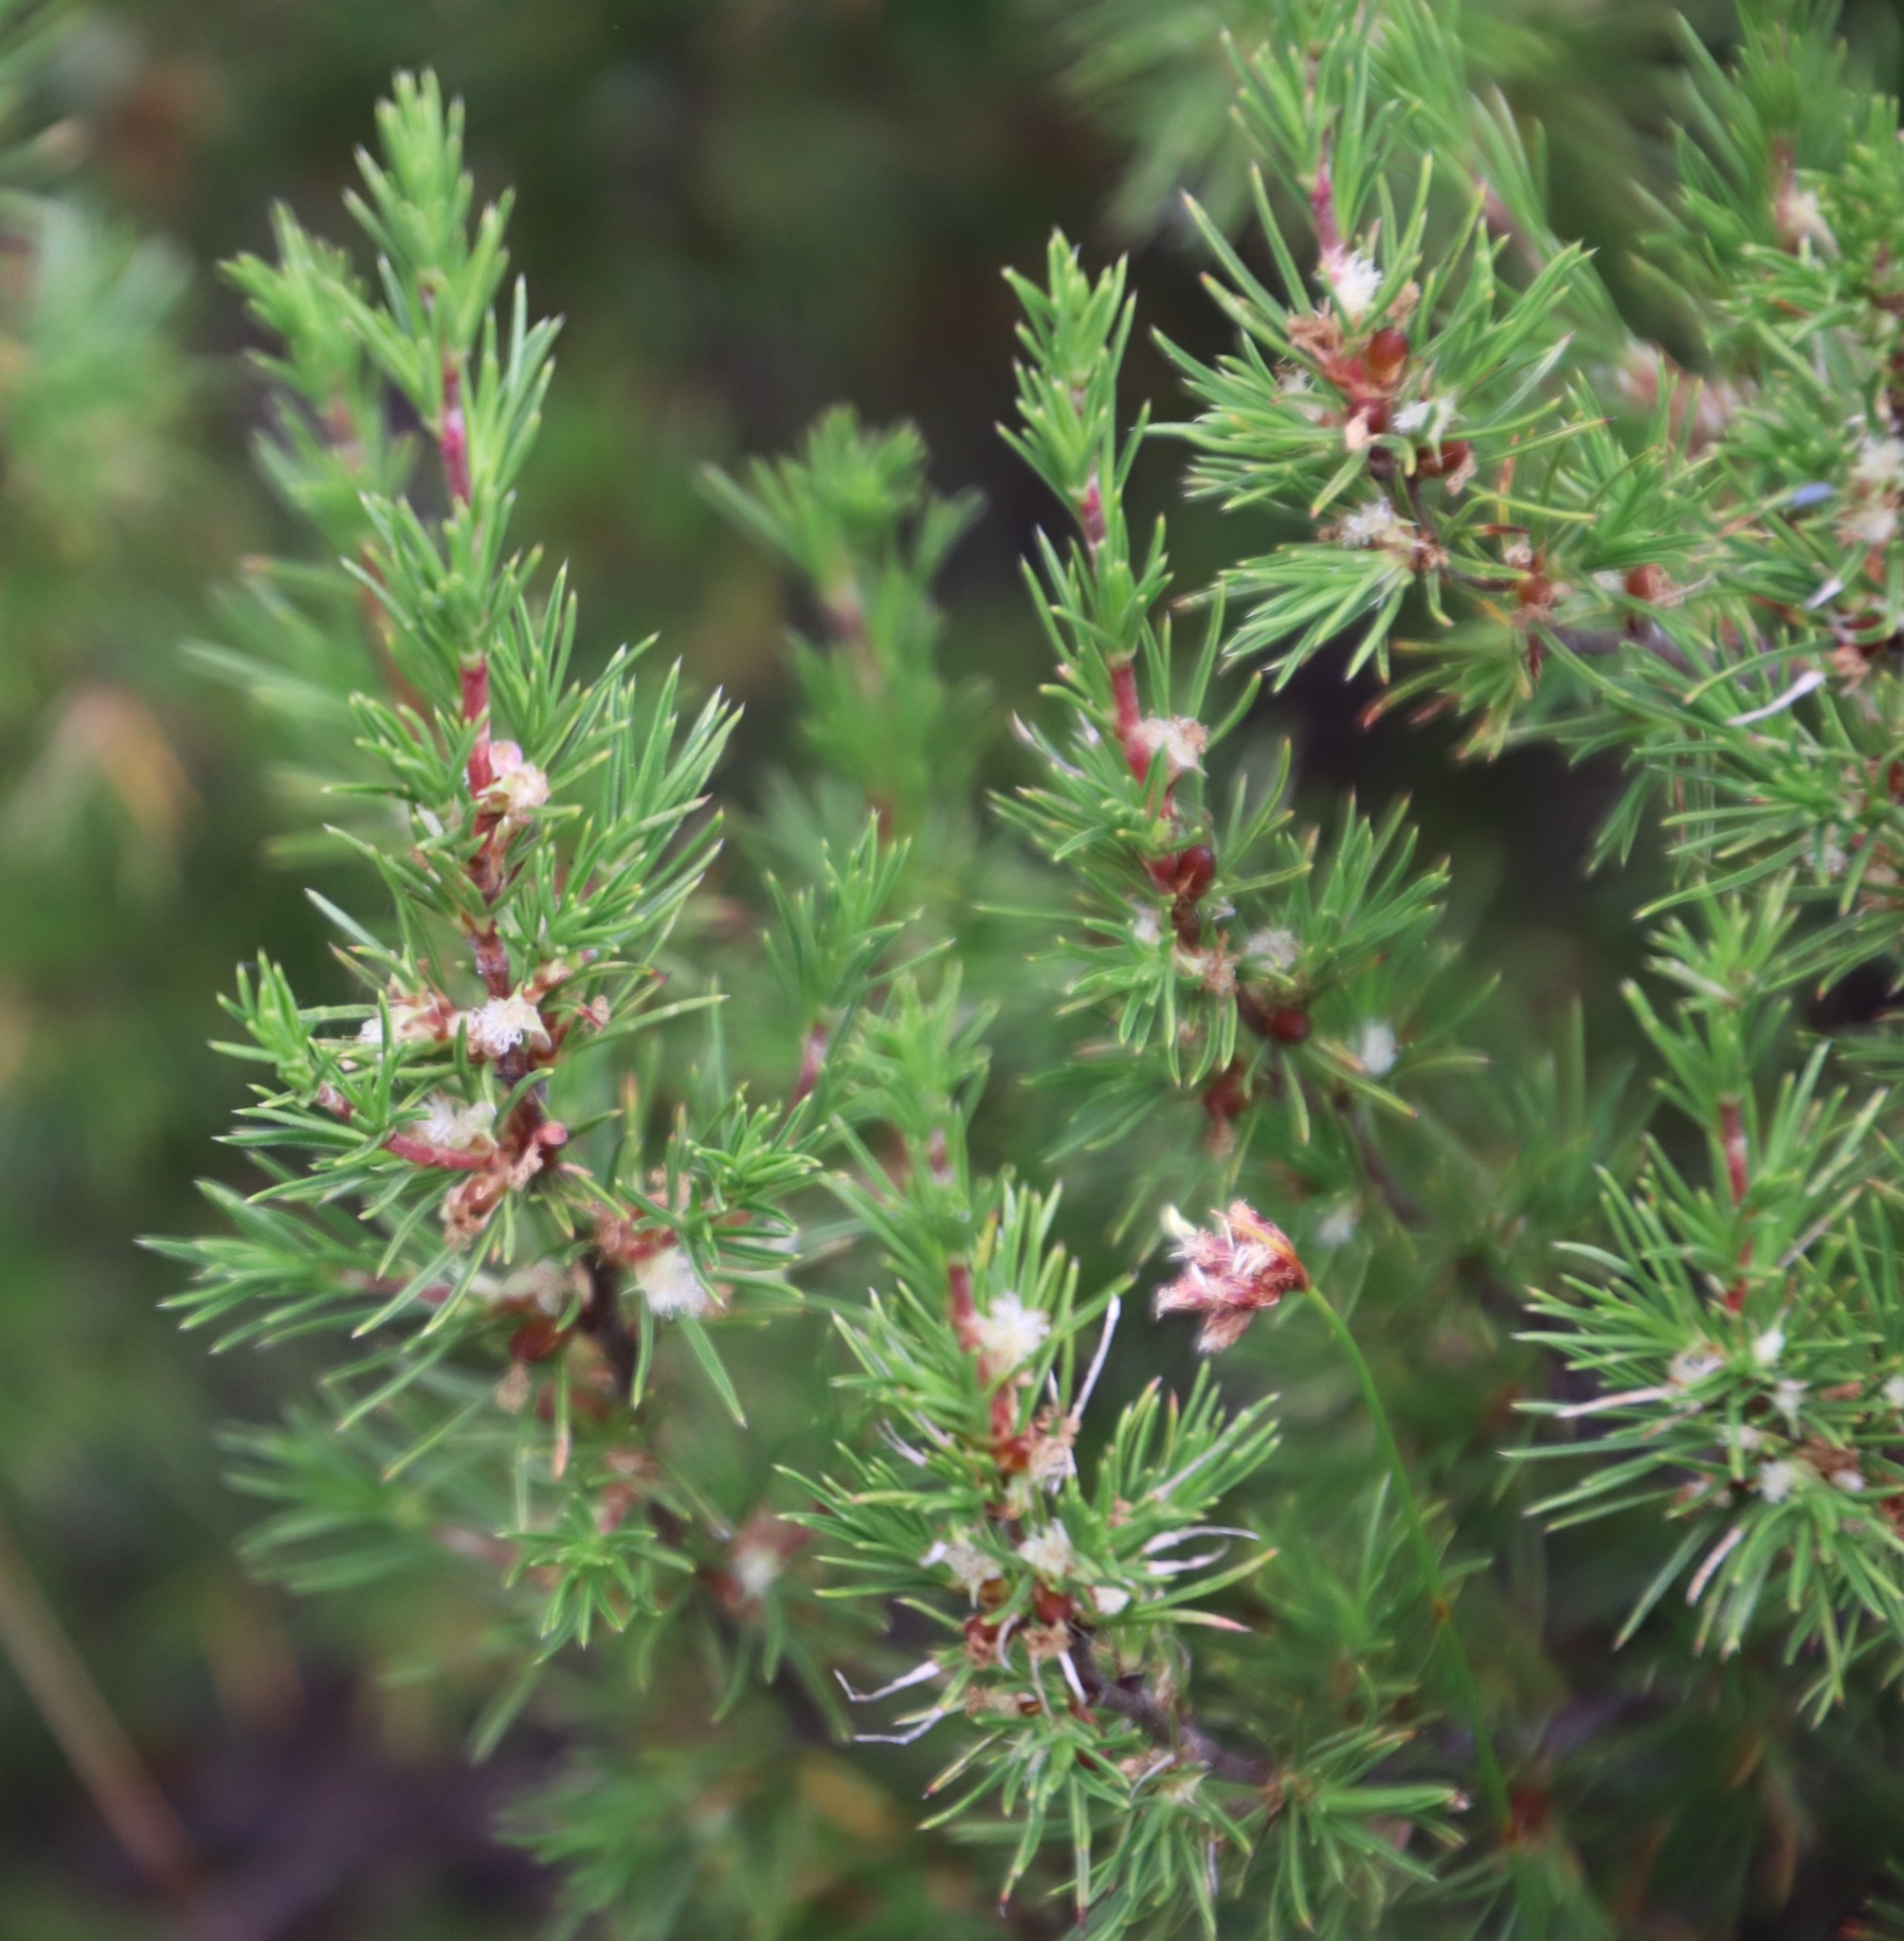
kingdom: Plantae
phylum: Tracheophyta
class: Magnoliopsida
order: Rosales
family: Rosaceae
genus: Cliffortia
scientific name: Cliffortia atrata
